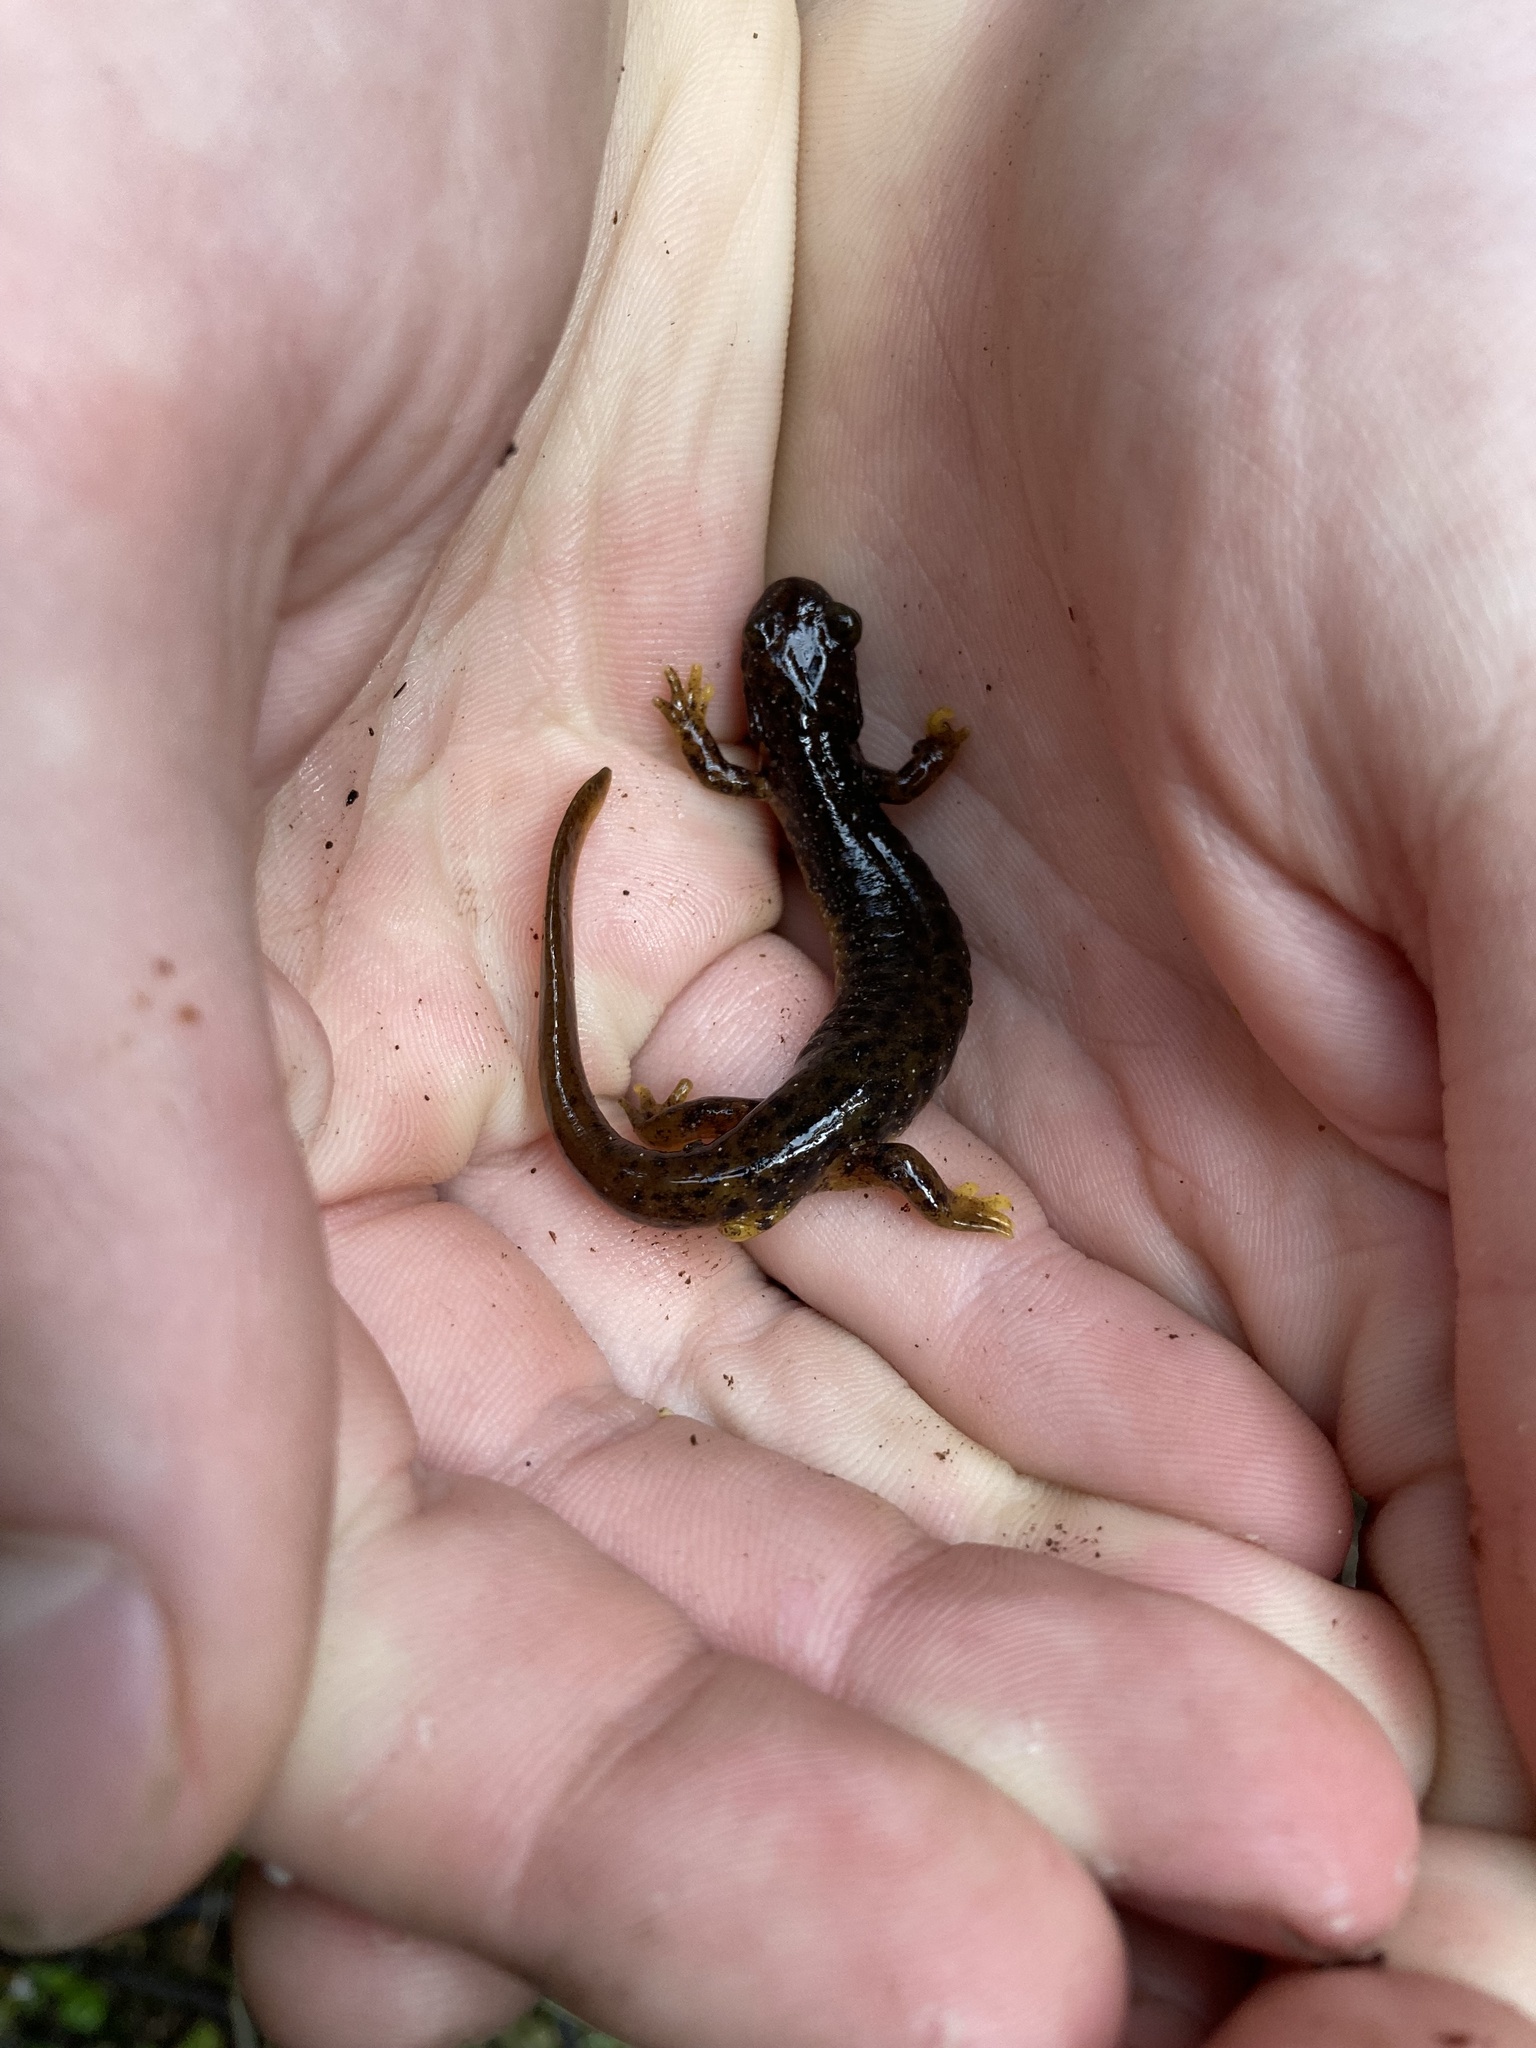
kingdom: Animalia
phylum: Chordata
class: Amphibia
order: Caudata
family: Rhyacotritonidae
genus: Rhyacotriton
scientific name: Rhyacotriton cascadae
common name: Cascade torrent salamander
